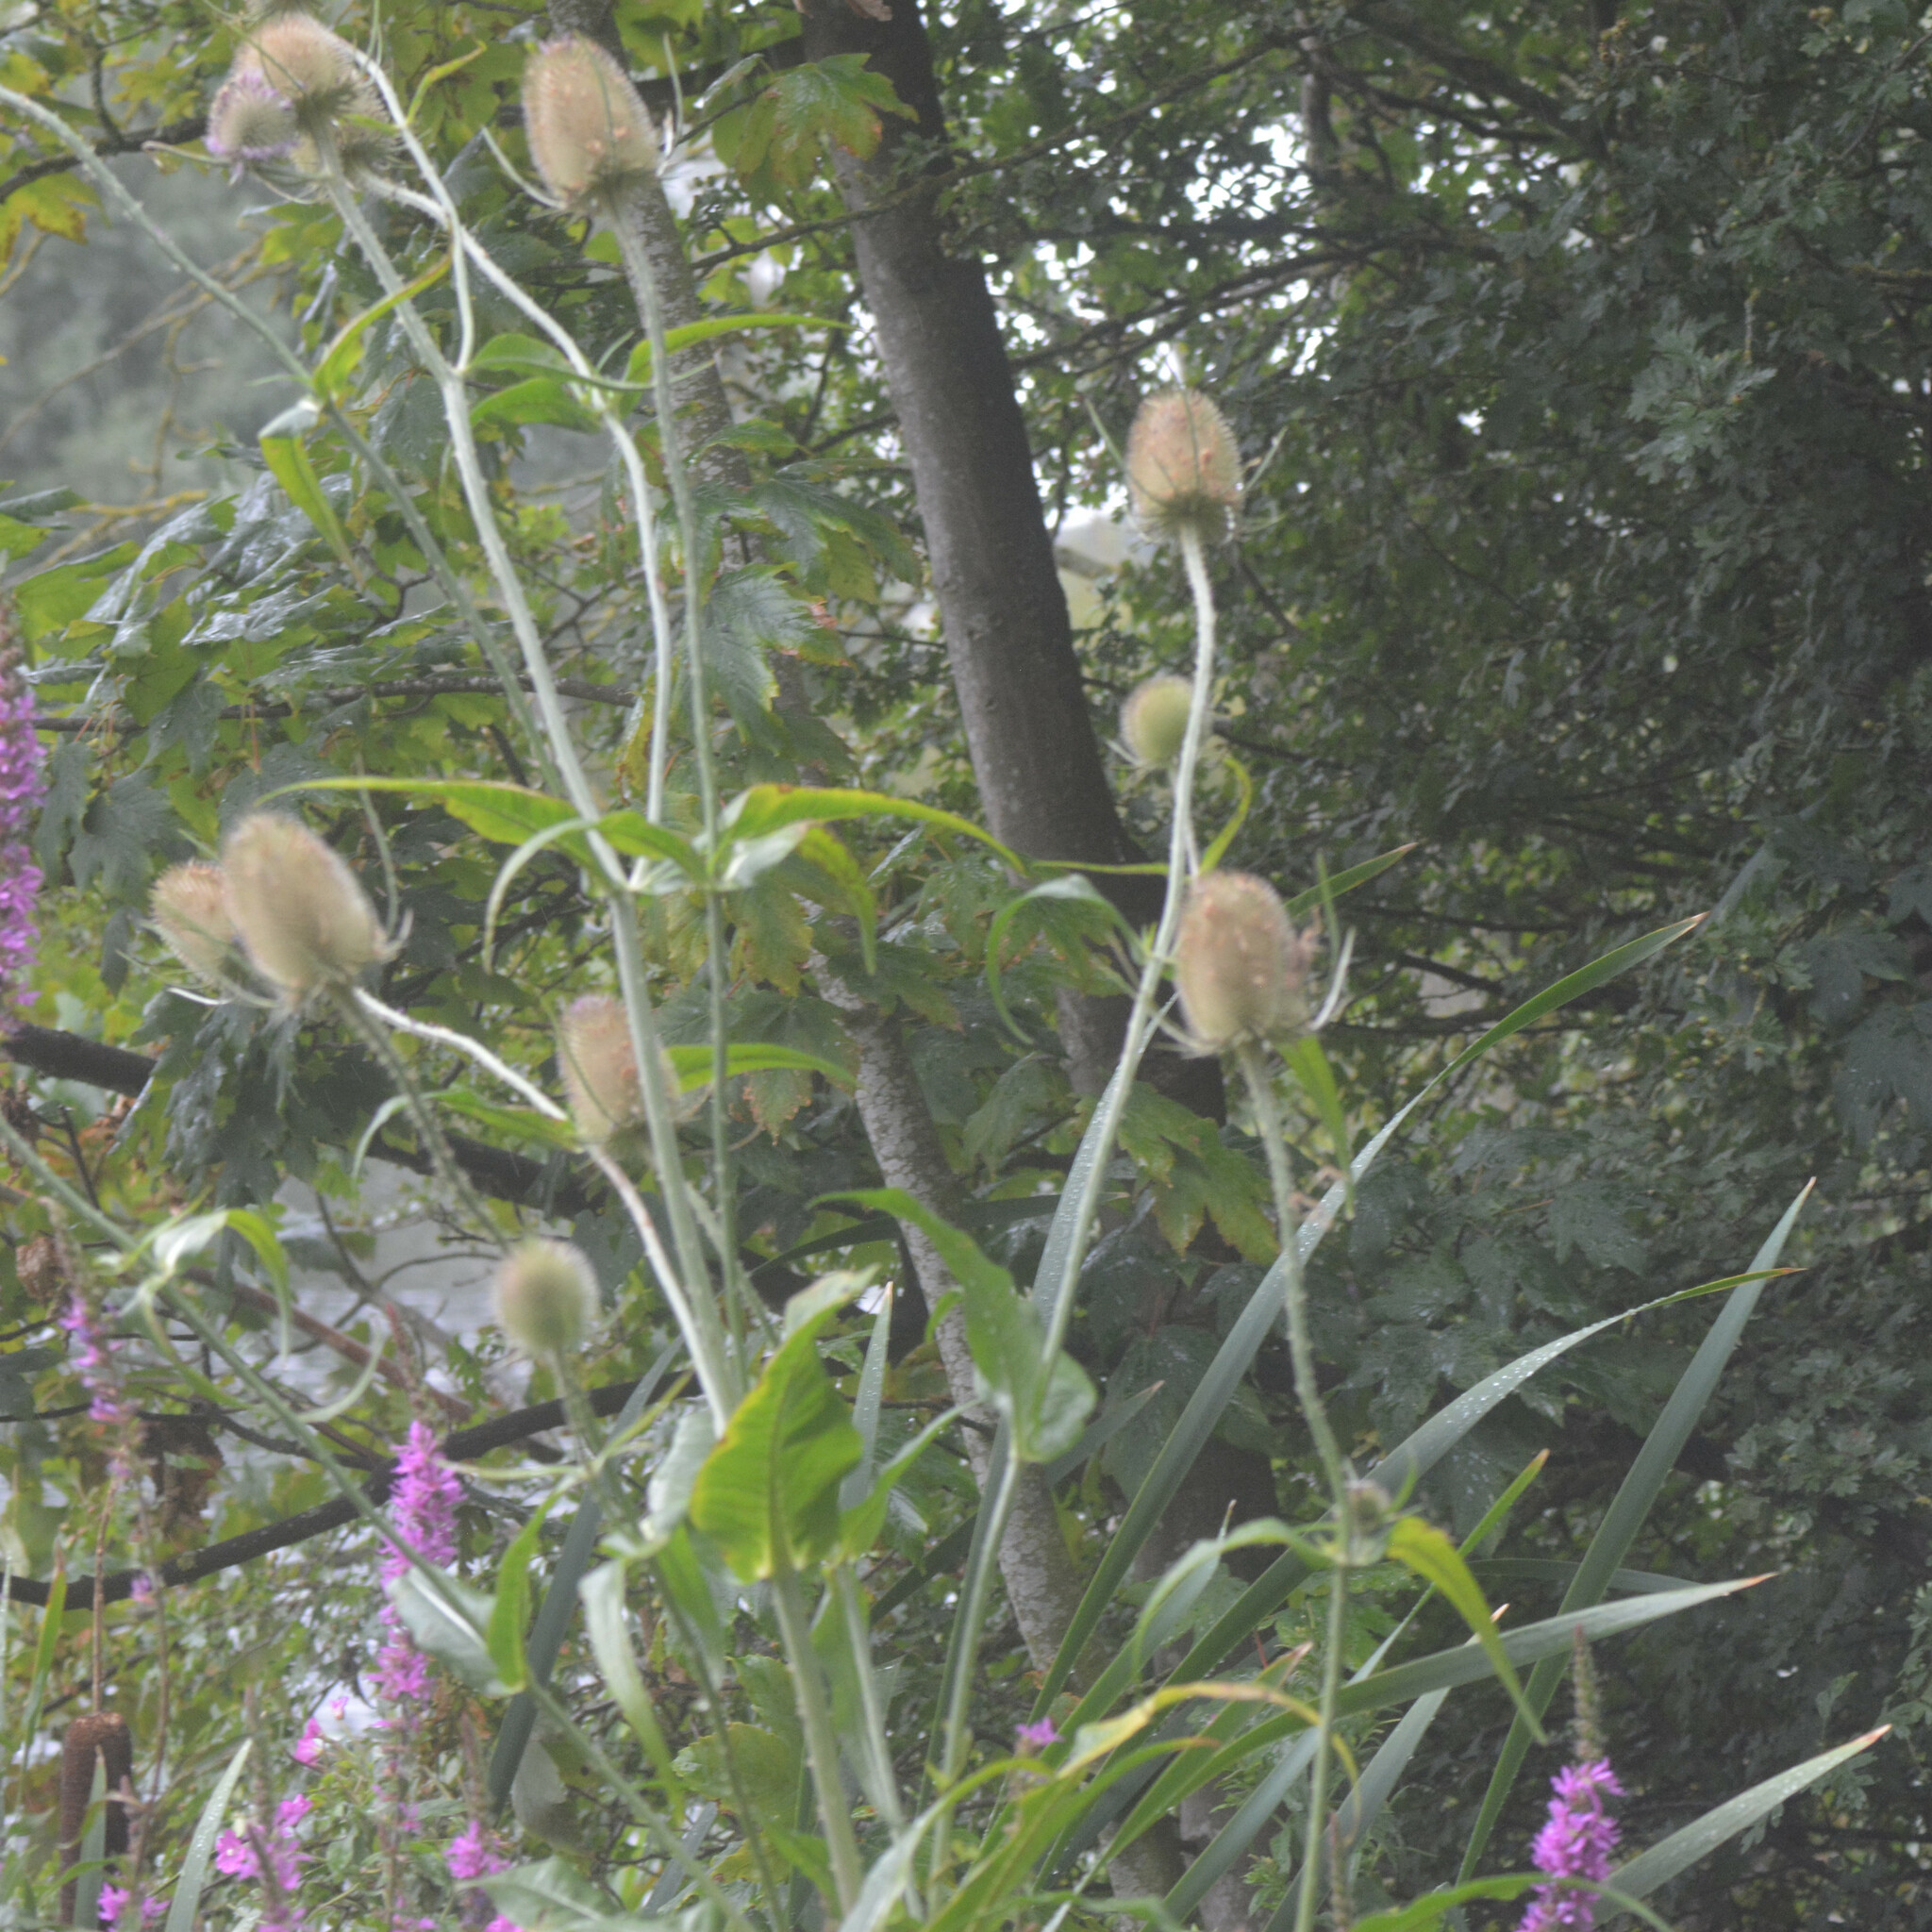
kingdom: Plantae
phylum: Tracheophyta
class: Magnoliopsida
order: Dipsacales
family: Caprifoliaceae
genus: Dipsacus
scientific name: Dipsacus fullonum
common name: Teasel
